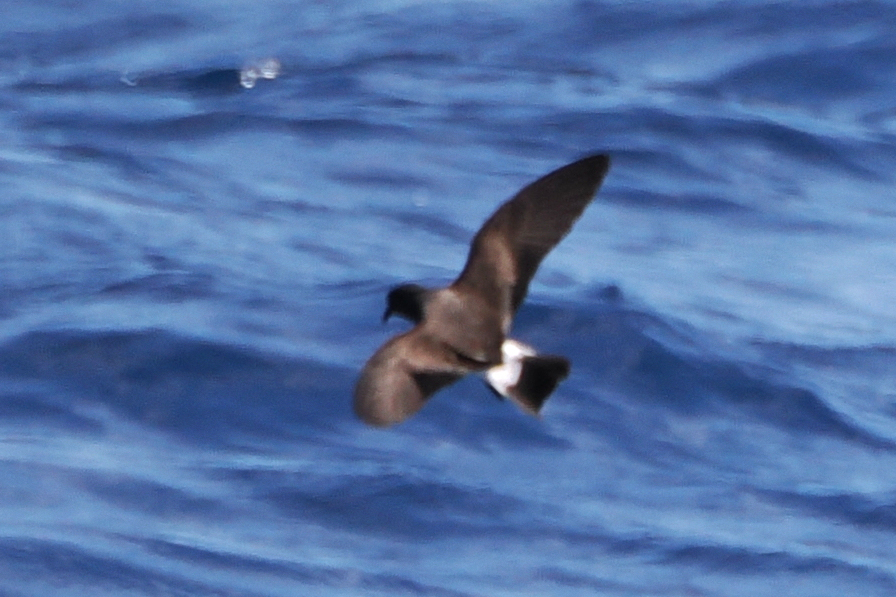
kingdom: Animalia
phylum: Chordata
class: Aves
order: Procellariiformes
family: Hydrobatidae
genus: Oceanodroma
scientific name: Oceanodroma castro
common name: Band-rumped storm-petrel
